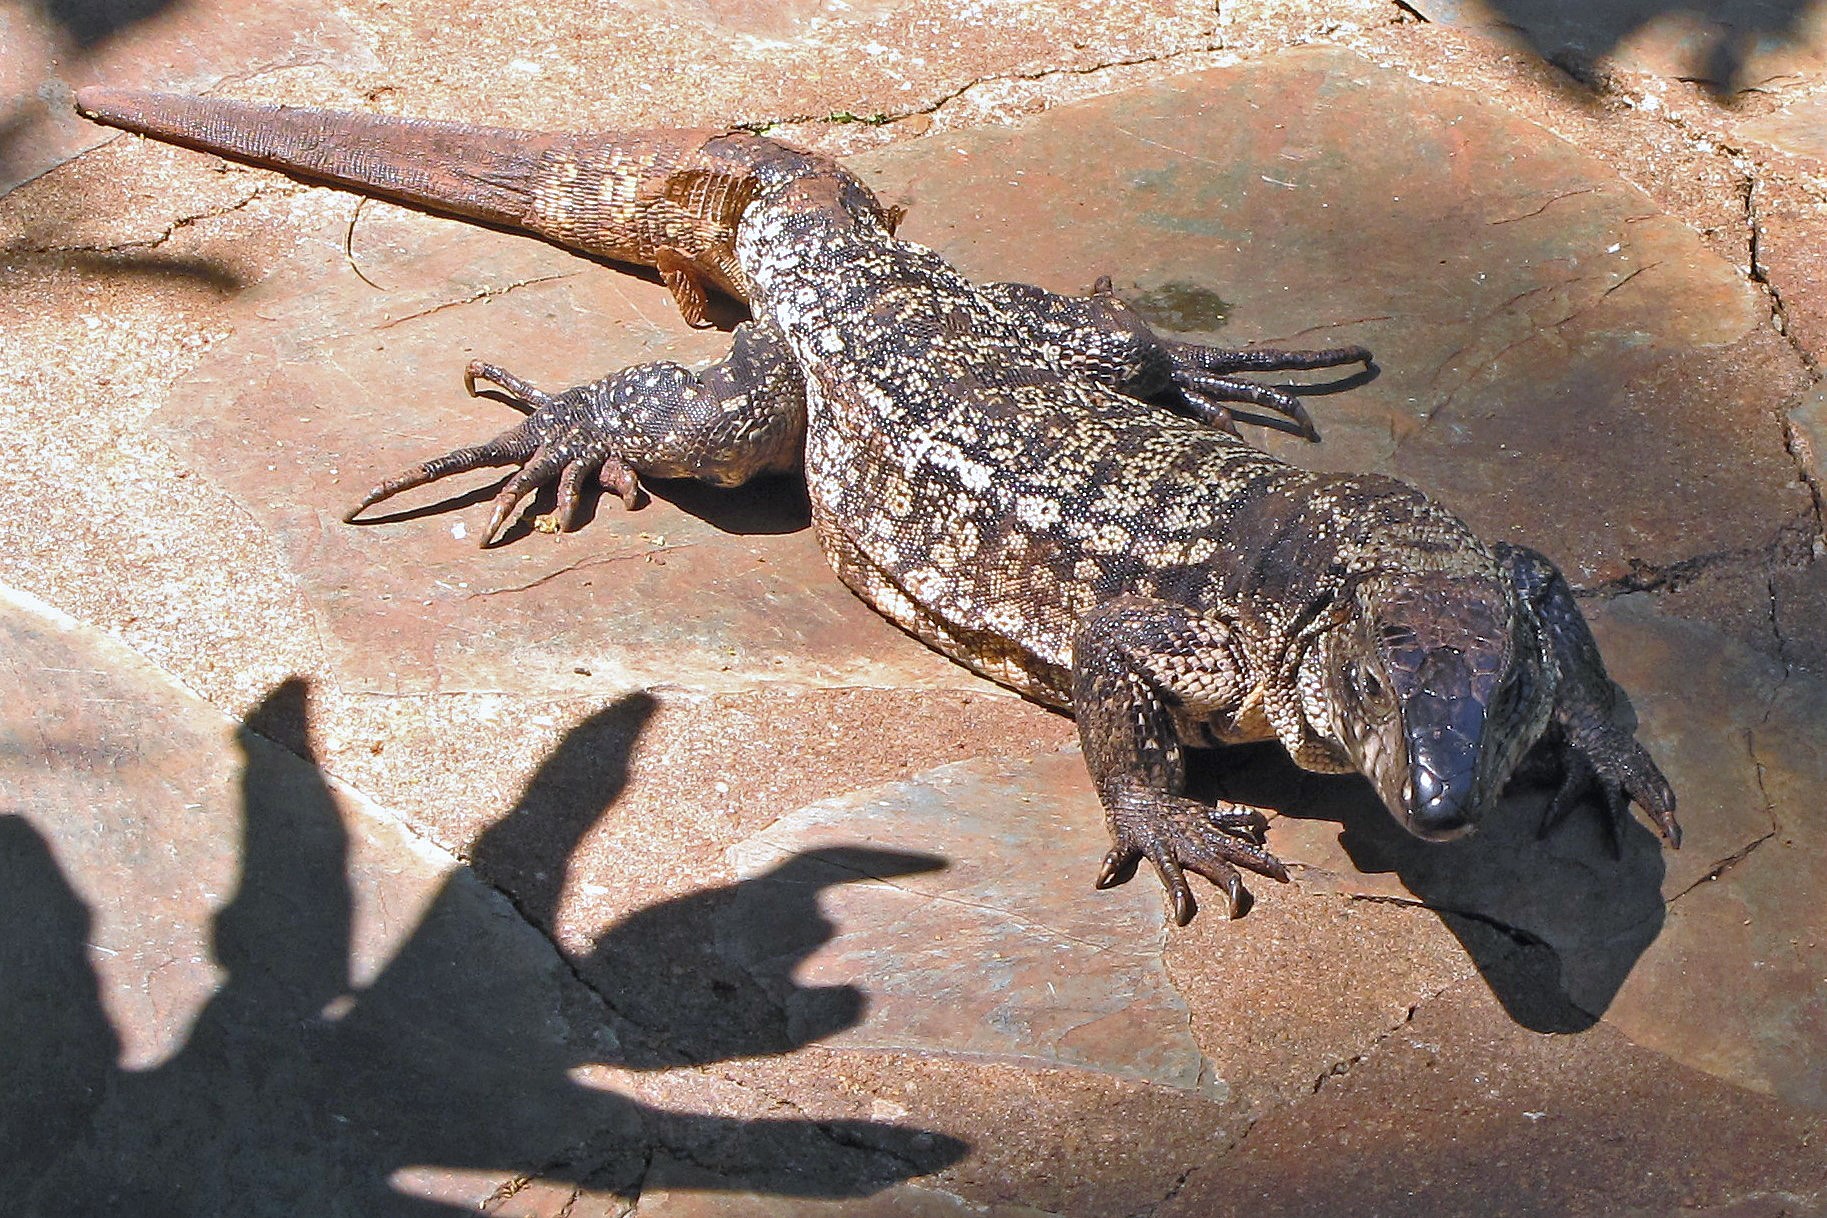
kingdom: Animalia
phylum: Chordata
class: Squamata
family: Teiidae
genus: Salvator
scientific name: Salvator merianae
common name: Argentine black and white tegu
